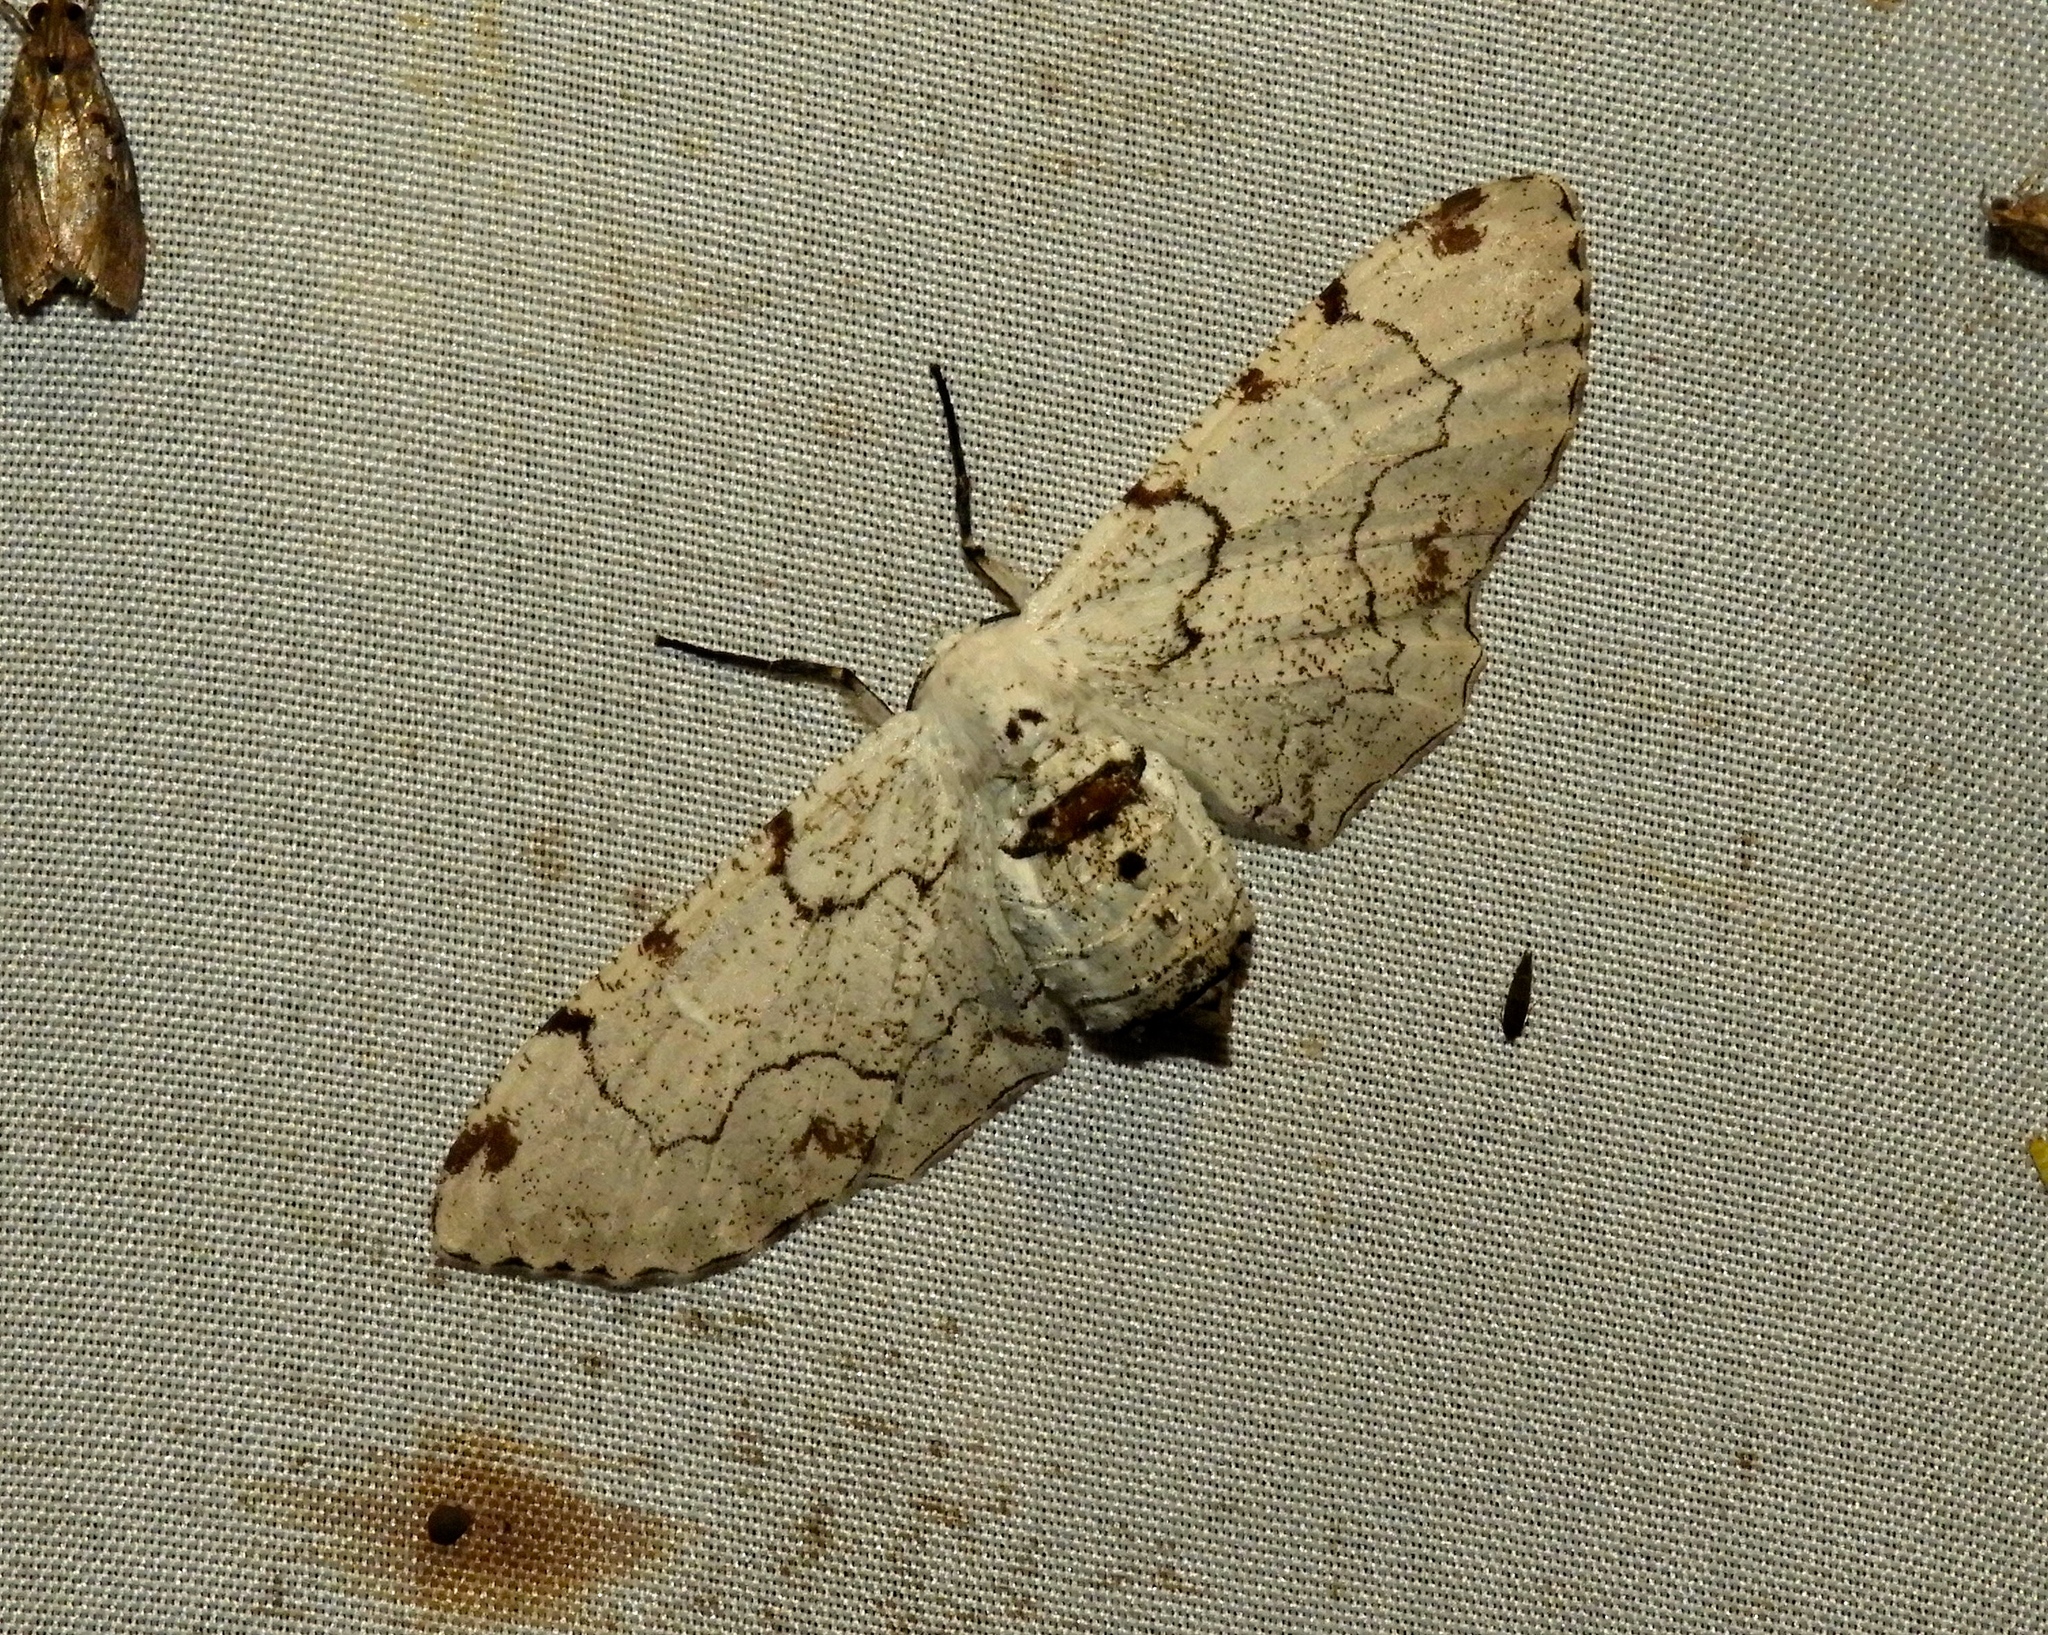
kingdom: Animalia
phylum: Arthropoda
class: Insecta
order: Lepidoptera
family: Geometridae
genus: Thyrinteina
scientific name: Thyrinteina arnobia
